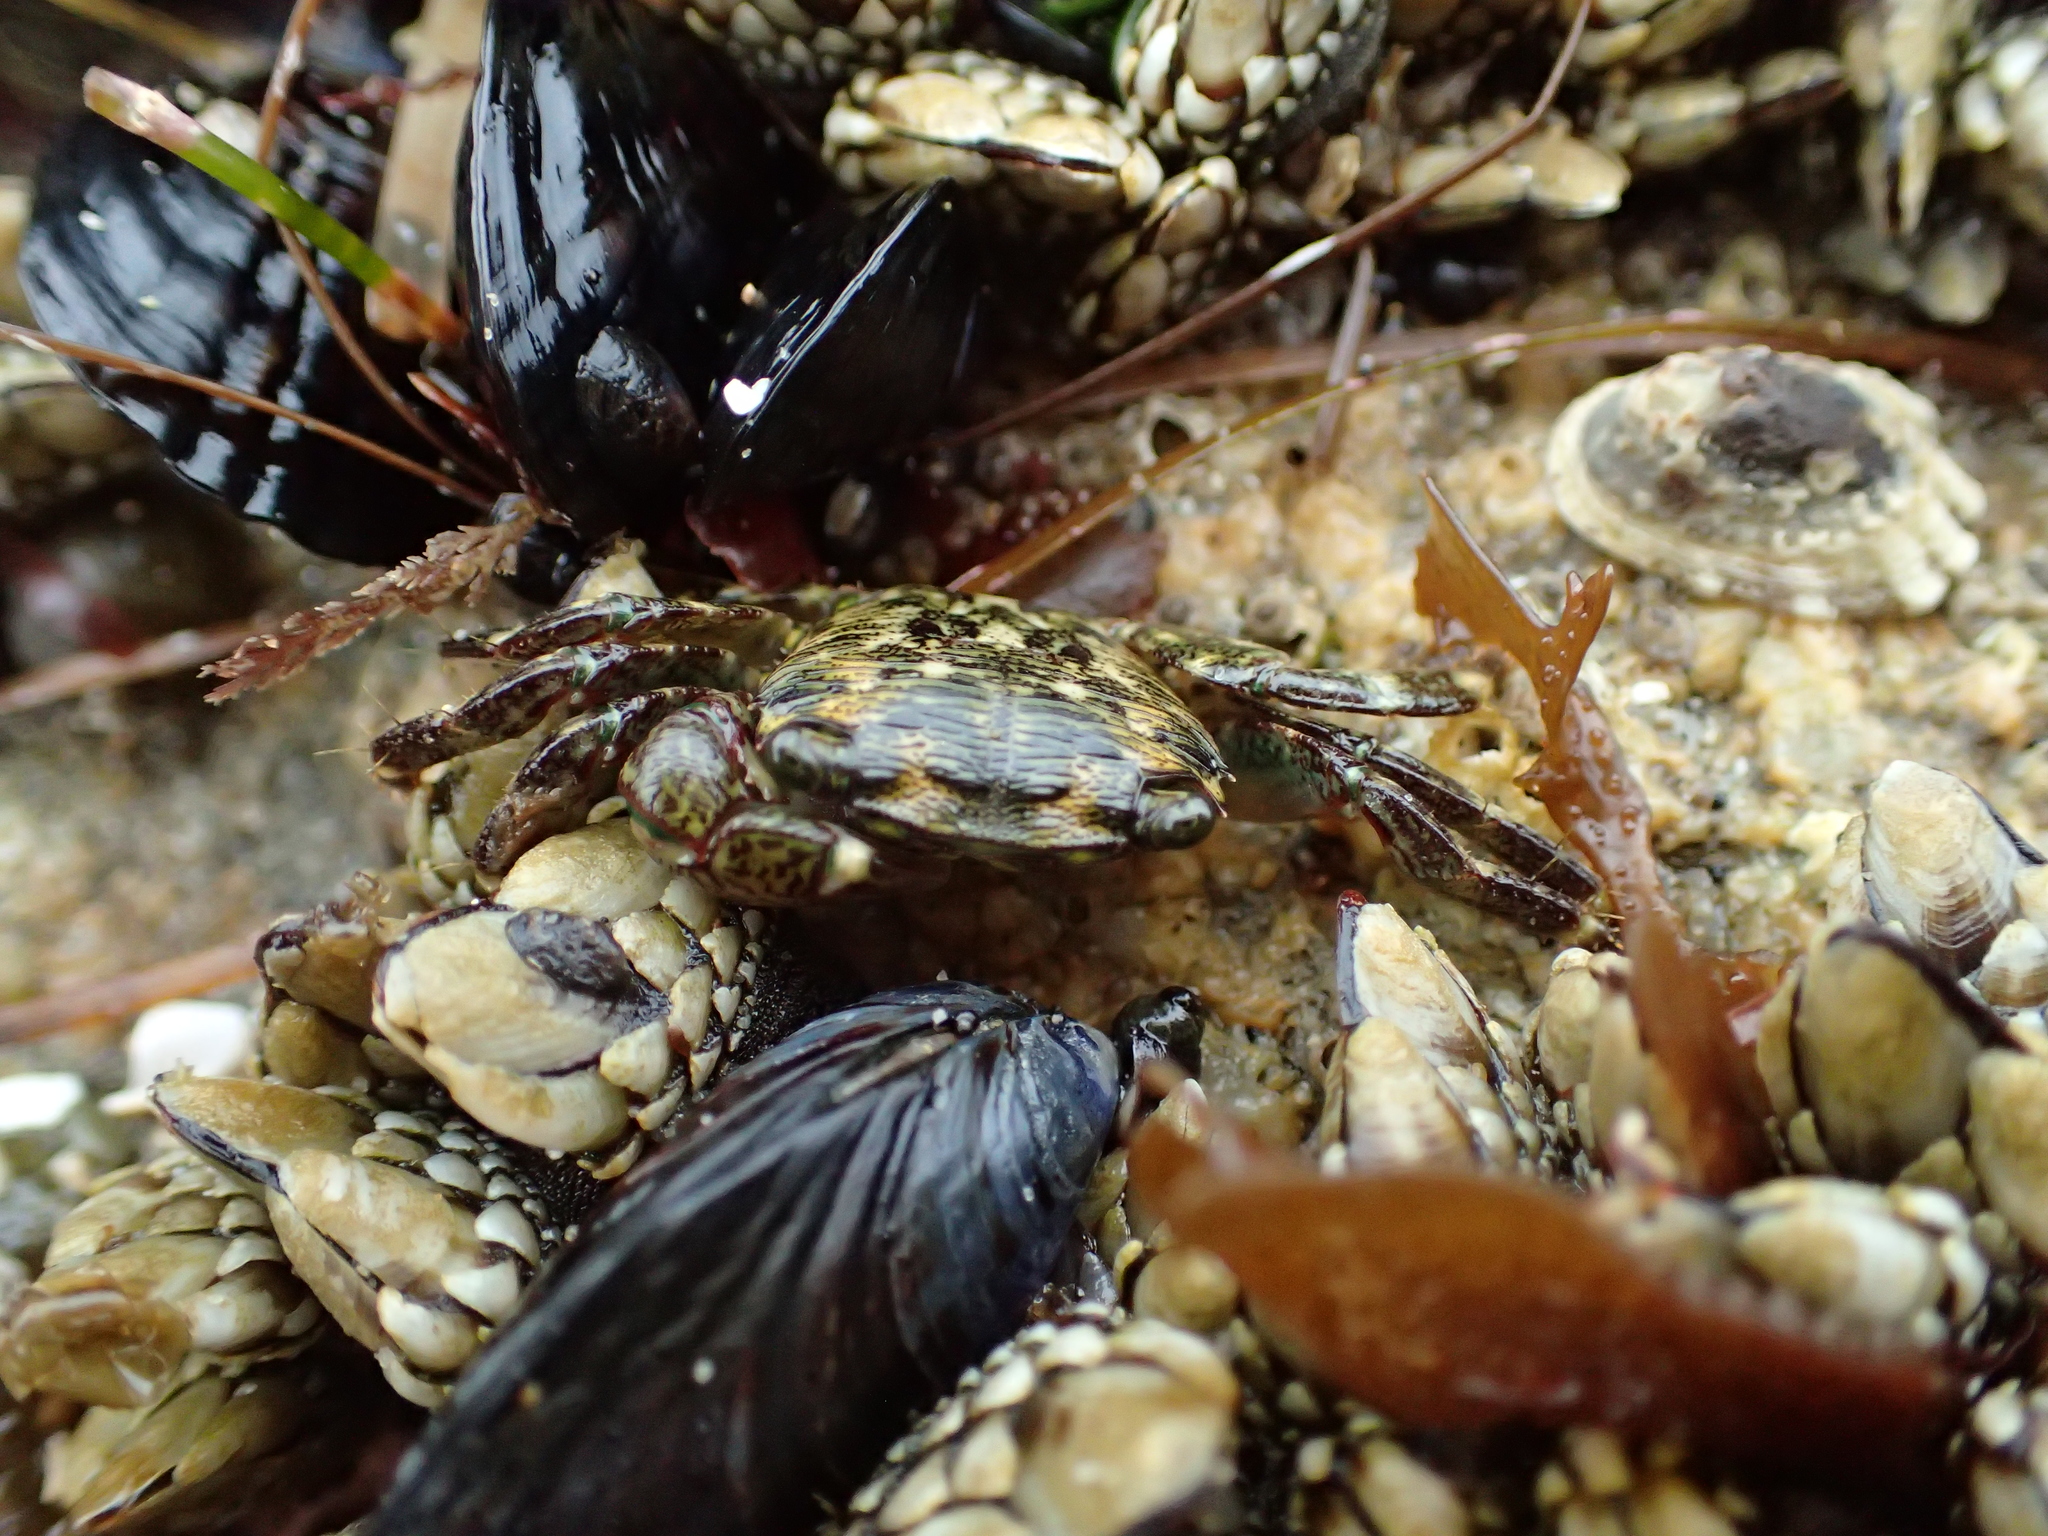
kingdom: Animalia
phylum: Arthropoda
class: Malacostraca
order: Decapoda
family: Grapsidae
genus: Pachygrapsus
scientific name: Pachygrapsus crassipes
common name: Striped shore crab
